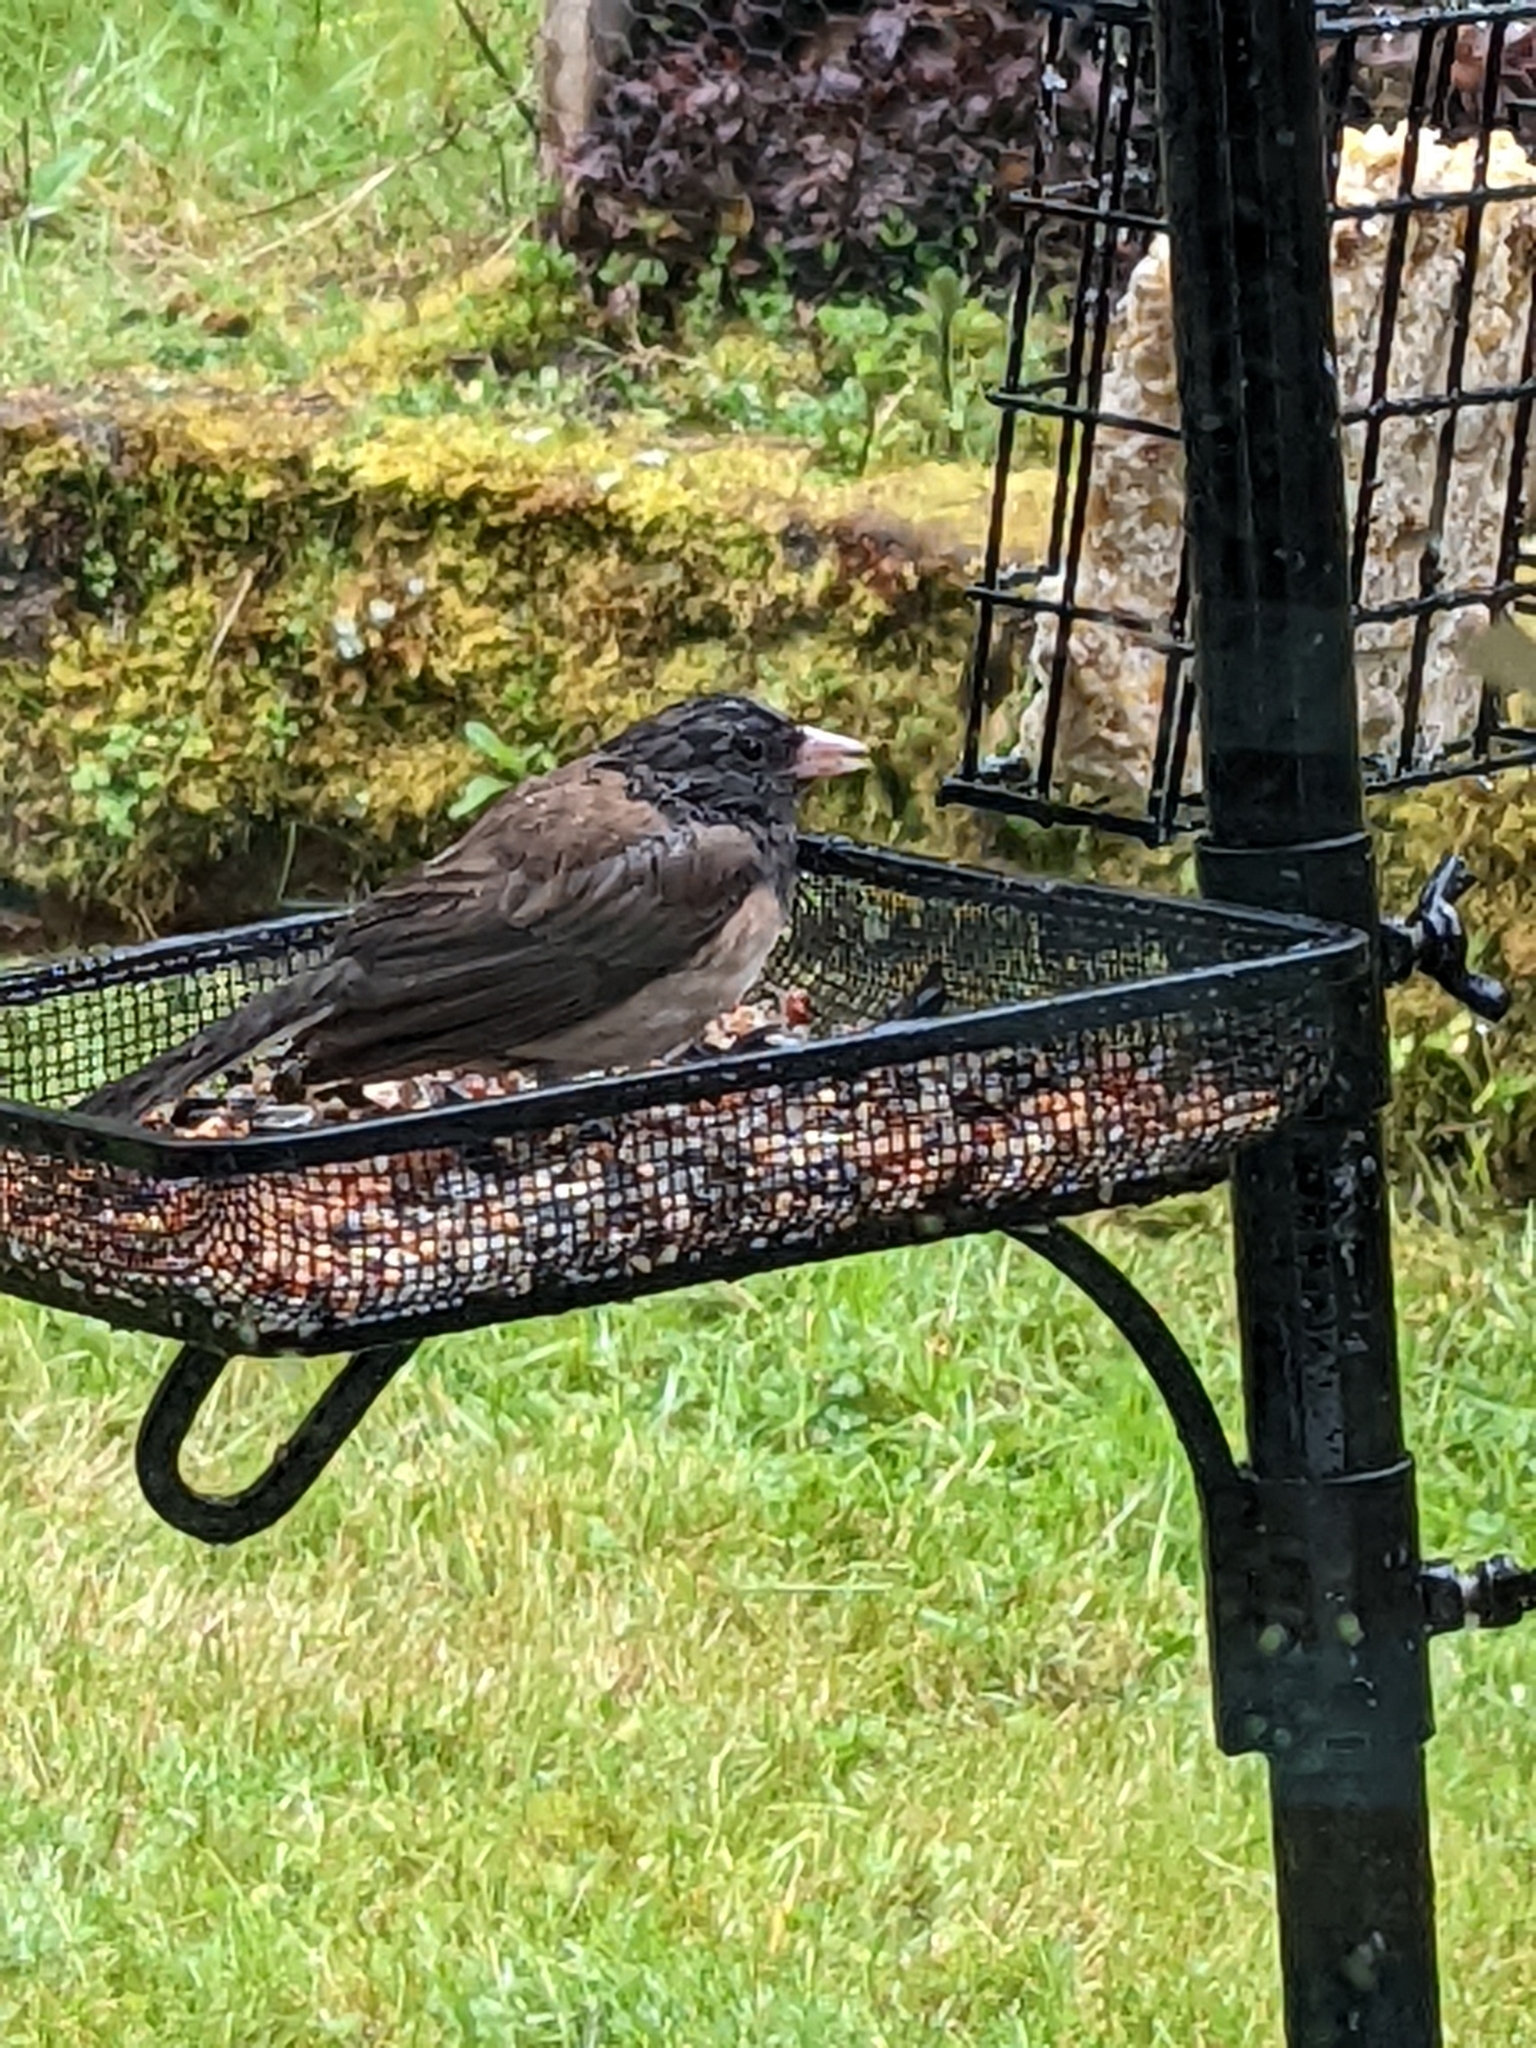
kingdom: Animalia
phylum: Chordata
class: Aves
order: Passeriformes
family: Passerellidae
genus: Junco
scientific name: Junco hyemalis
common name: Dark-eyed junco
